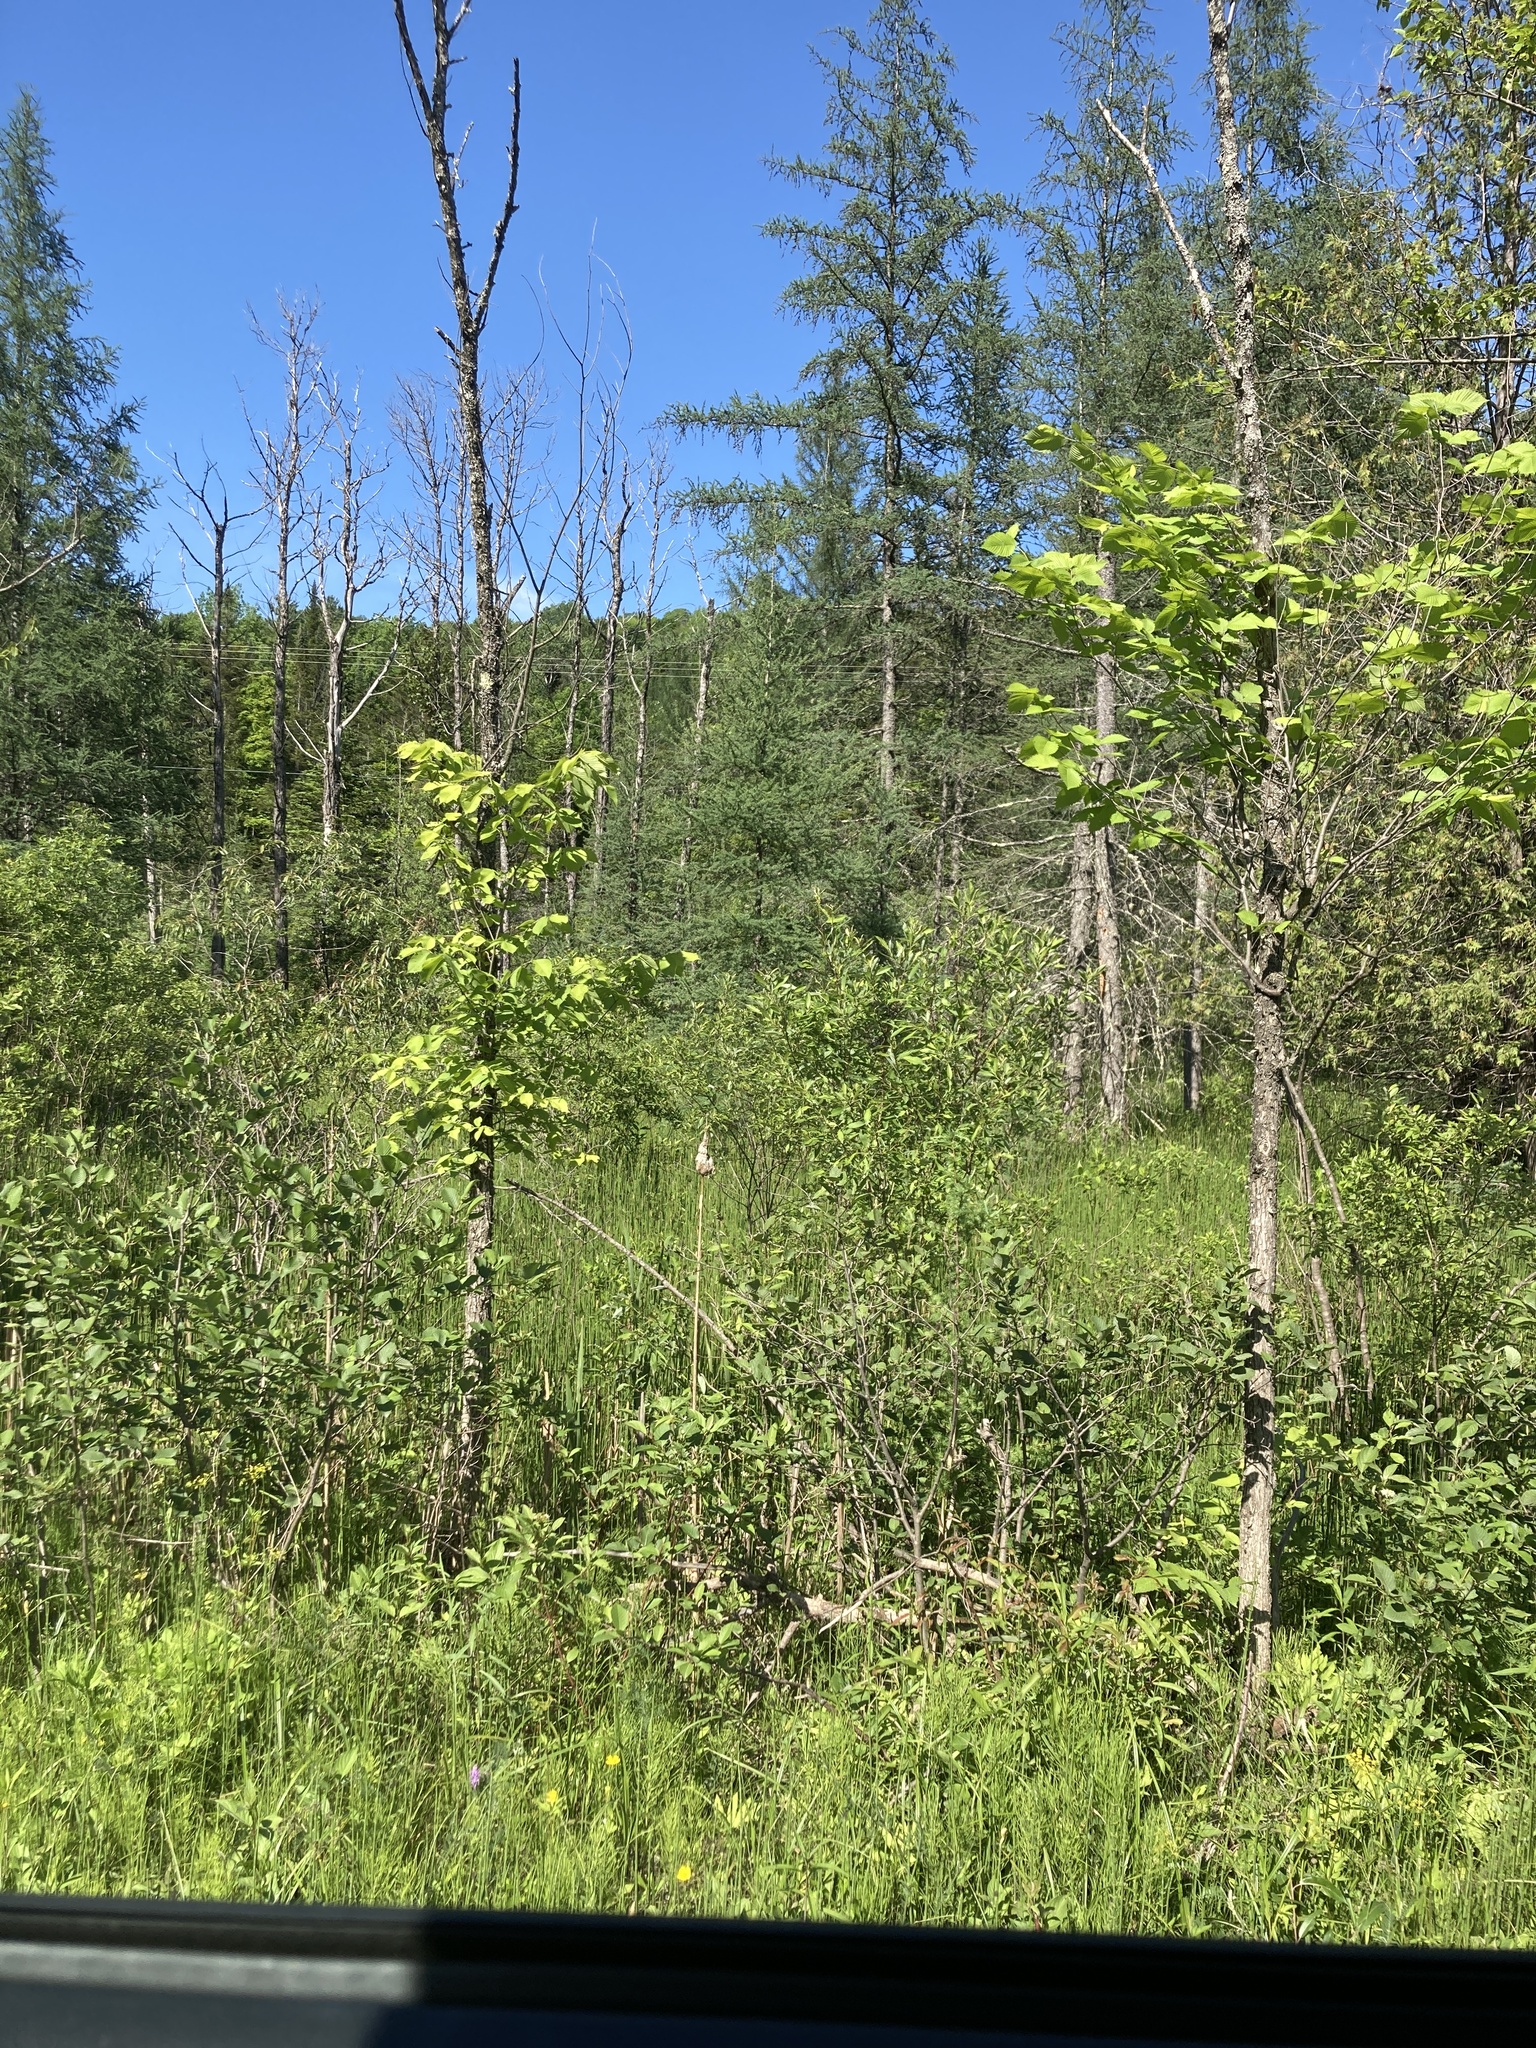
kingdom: Plantae
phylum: Tracheophyta
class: Pinopsida
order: Pinales
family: Pinaceae
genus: Larix
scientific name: Larix laricina
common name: American larch
